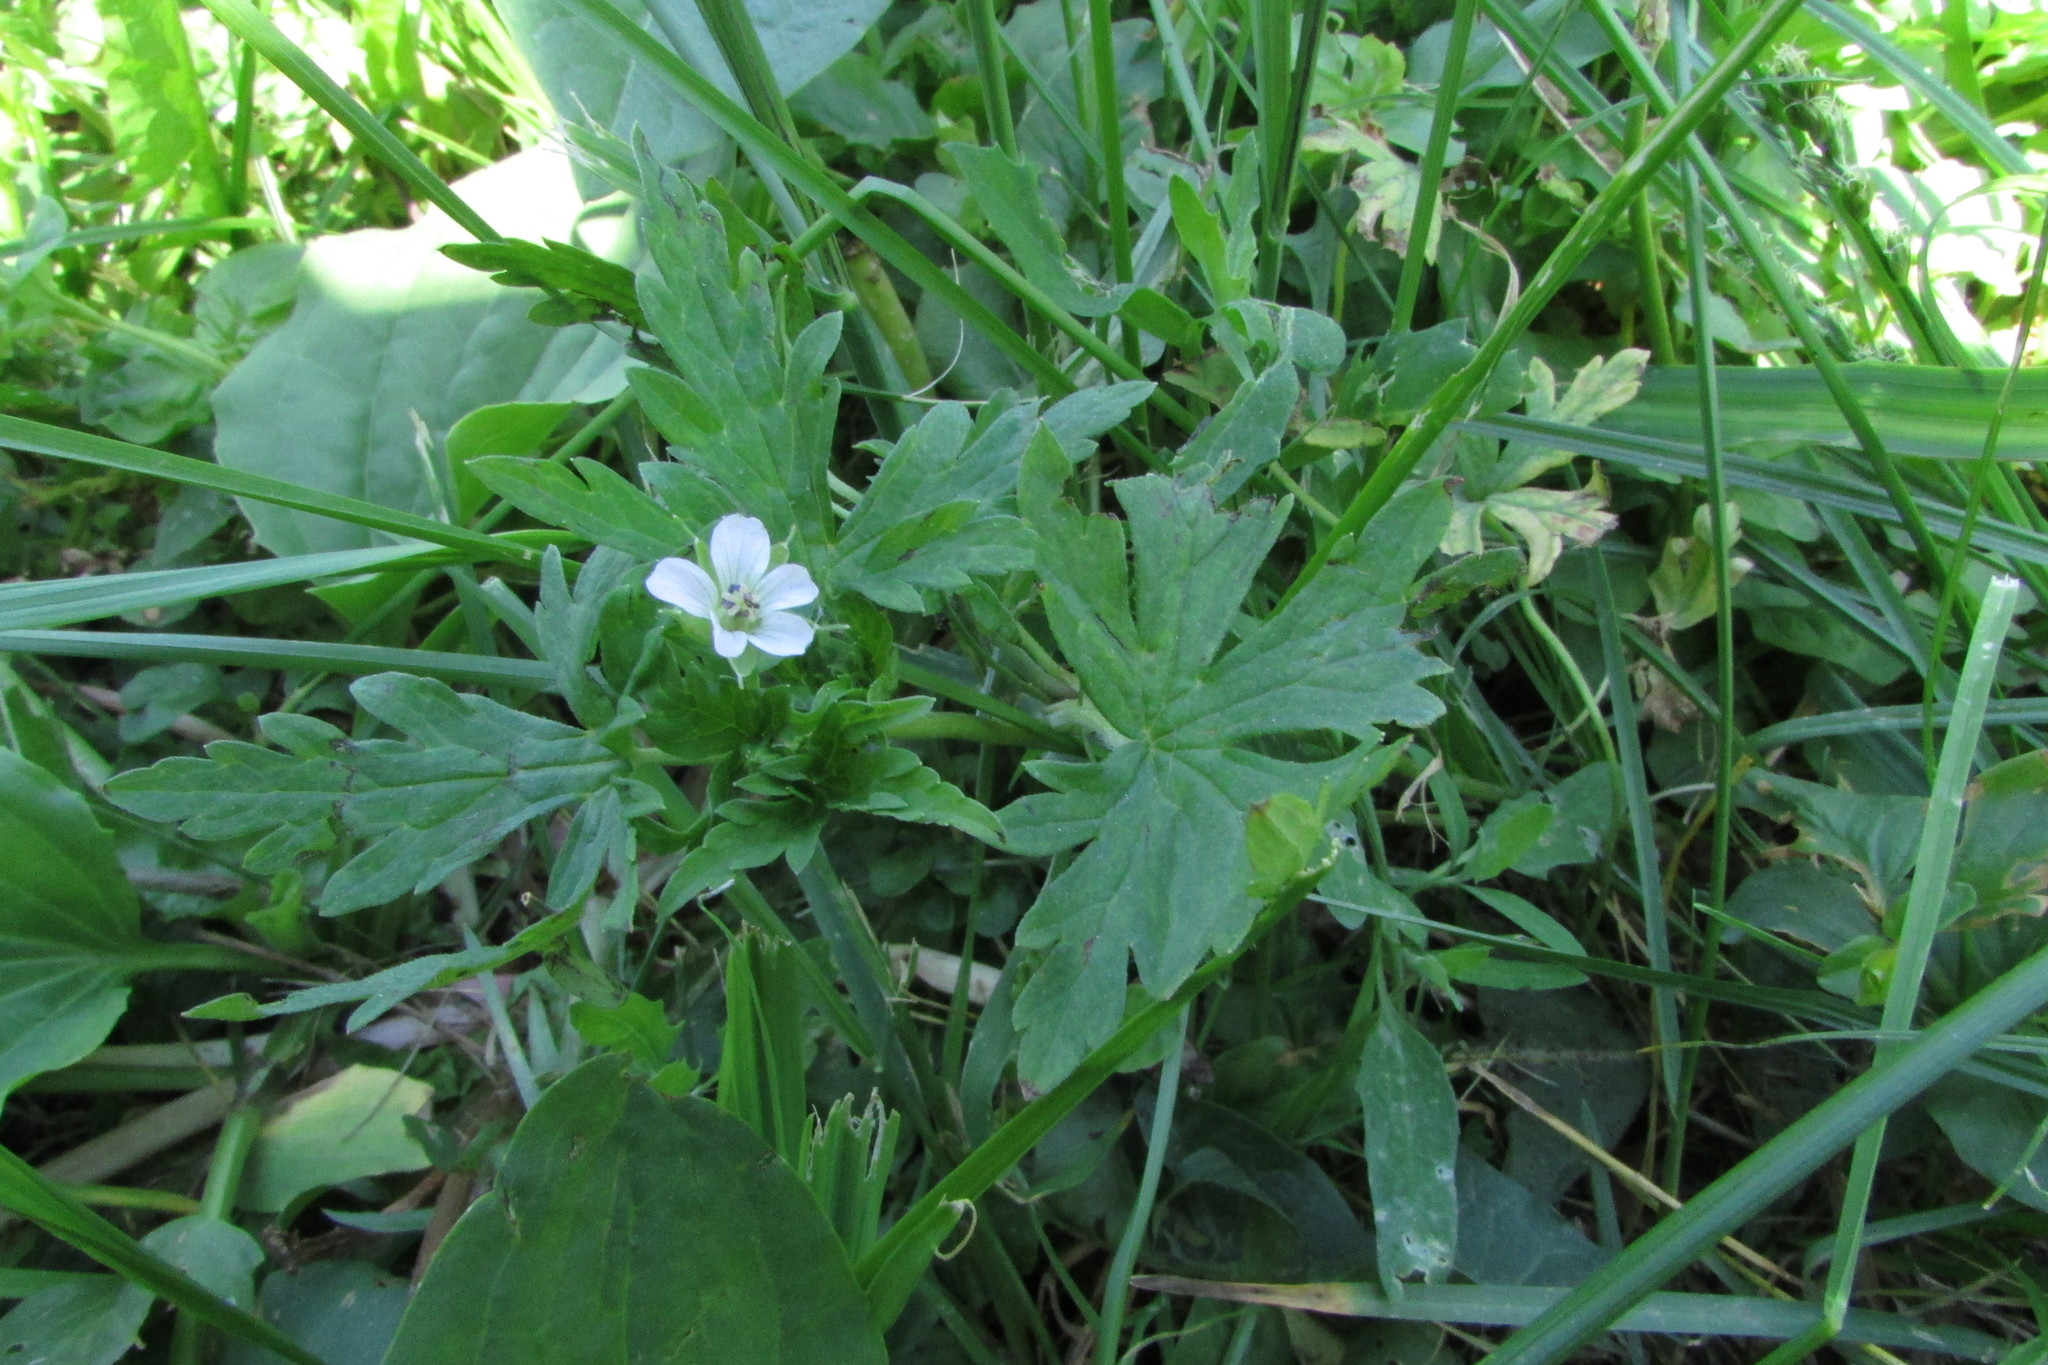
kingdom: Plantae
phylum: Tracheophyta
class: Magnoliopsida
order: Geraniales
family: Geraniaceae
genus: Geranium
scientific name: Geranium sibiricum
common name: Siberian crane's-bill
